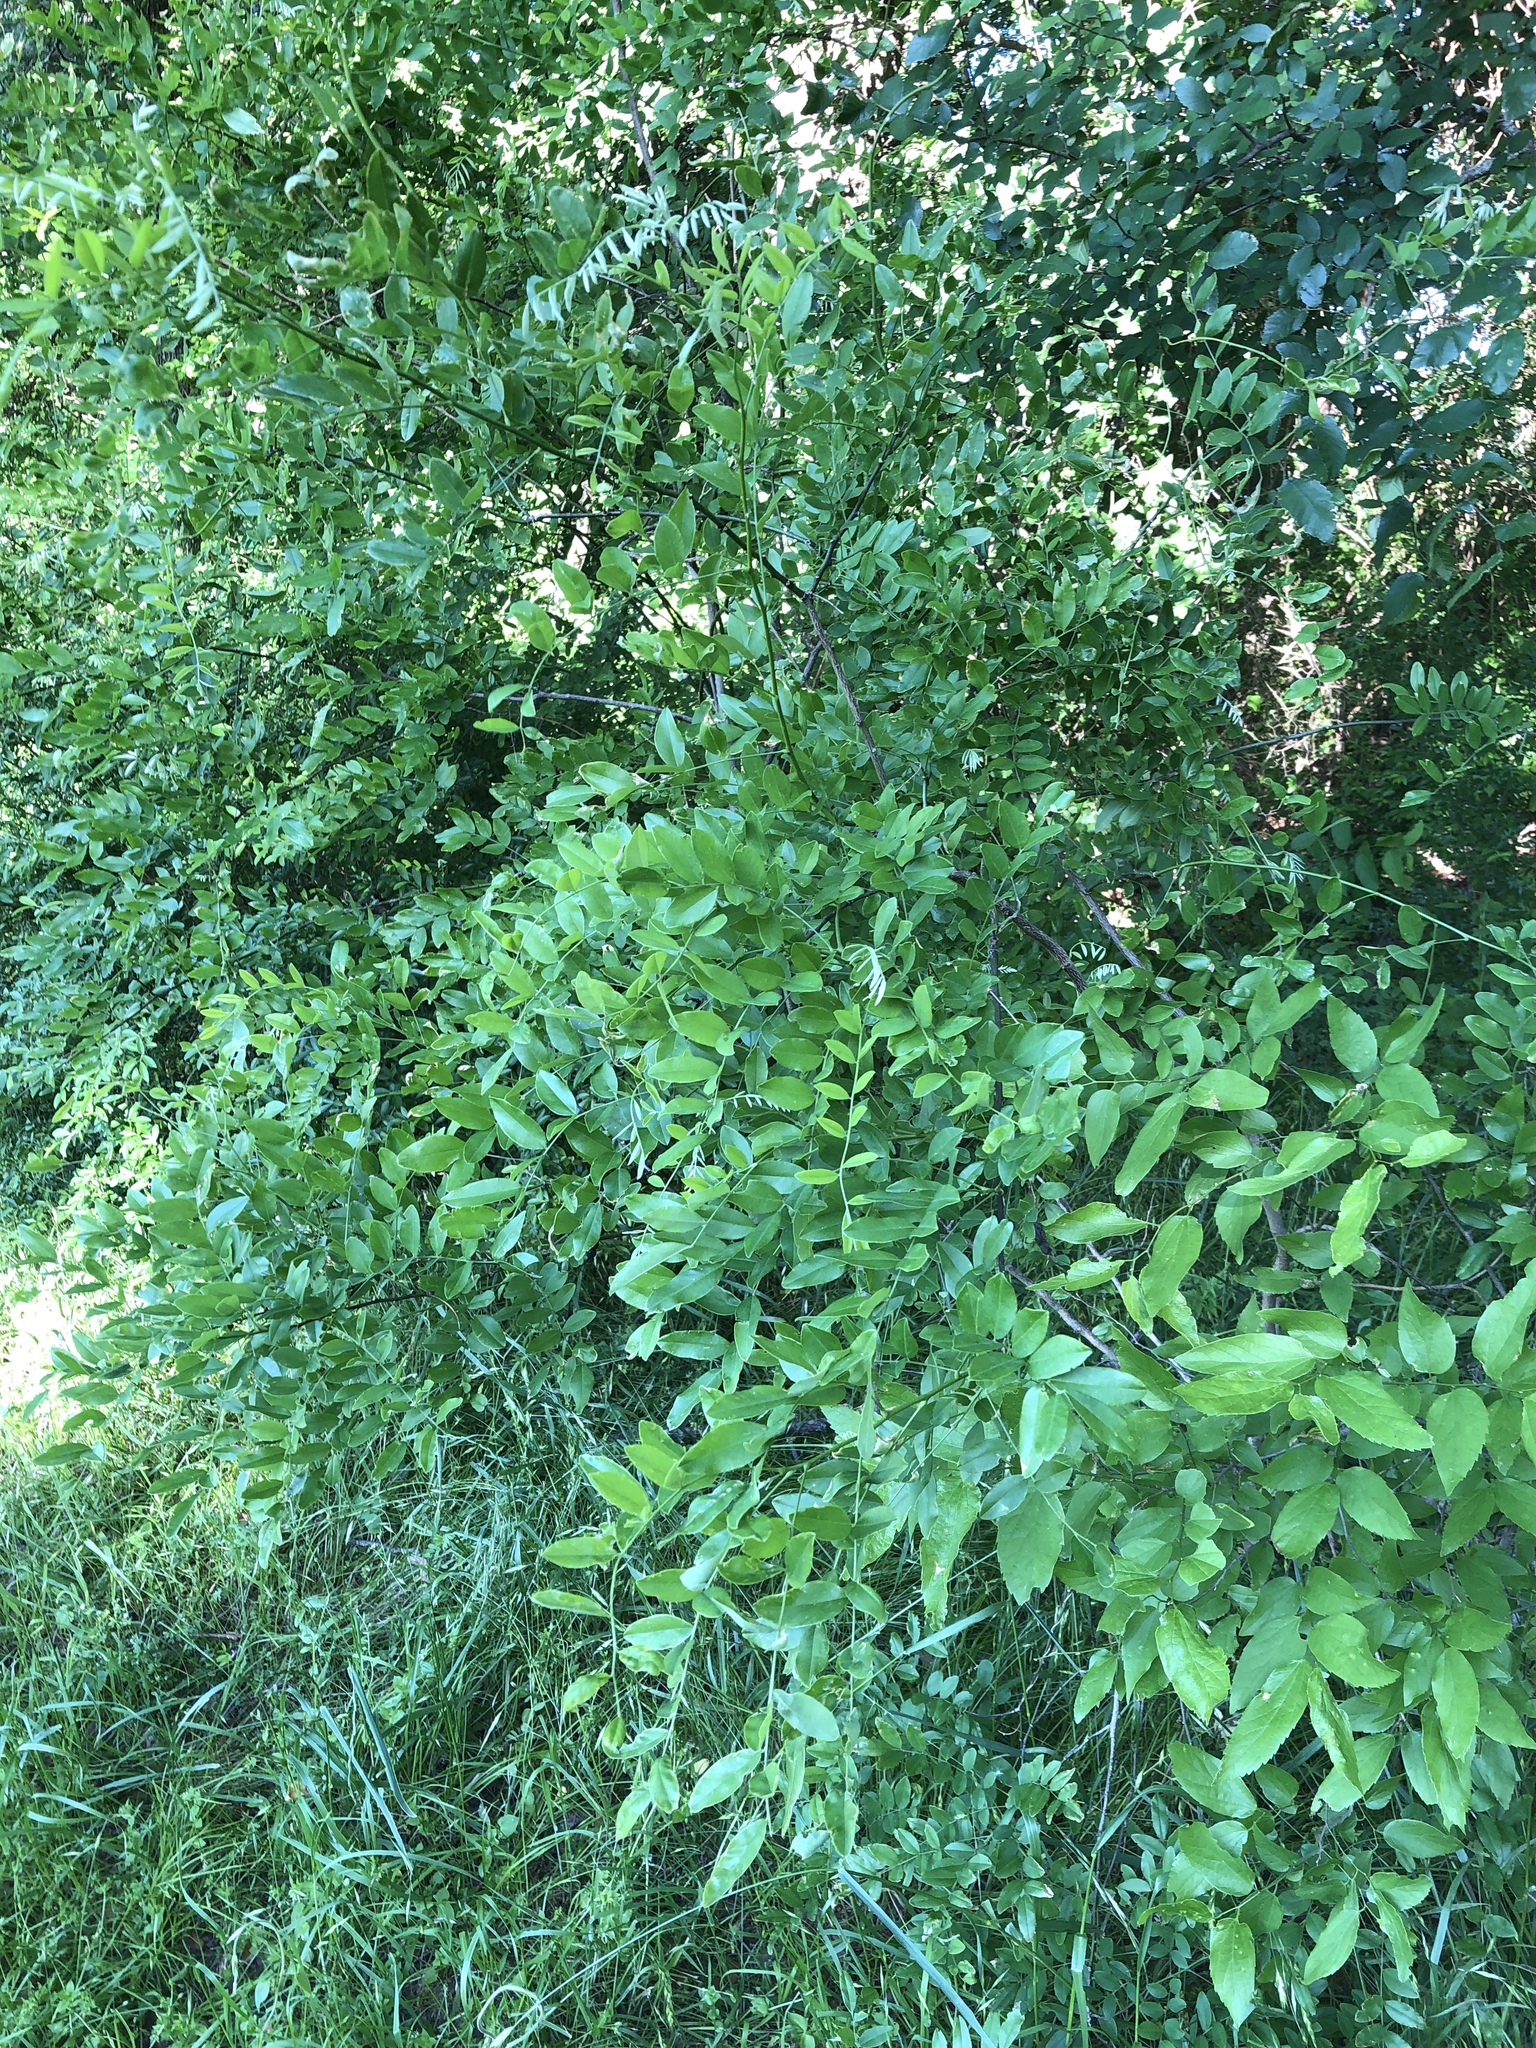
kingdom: Plantae
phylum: Tracheophyta
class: Magnoliopsida
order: Fabales
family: Fabaceae
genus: Styphnolobium
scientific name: Styphnolobium affine
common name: Texas sophora
